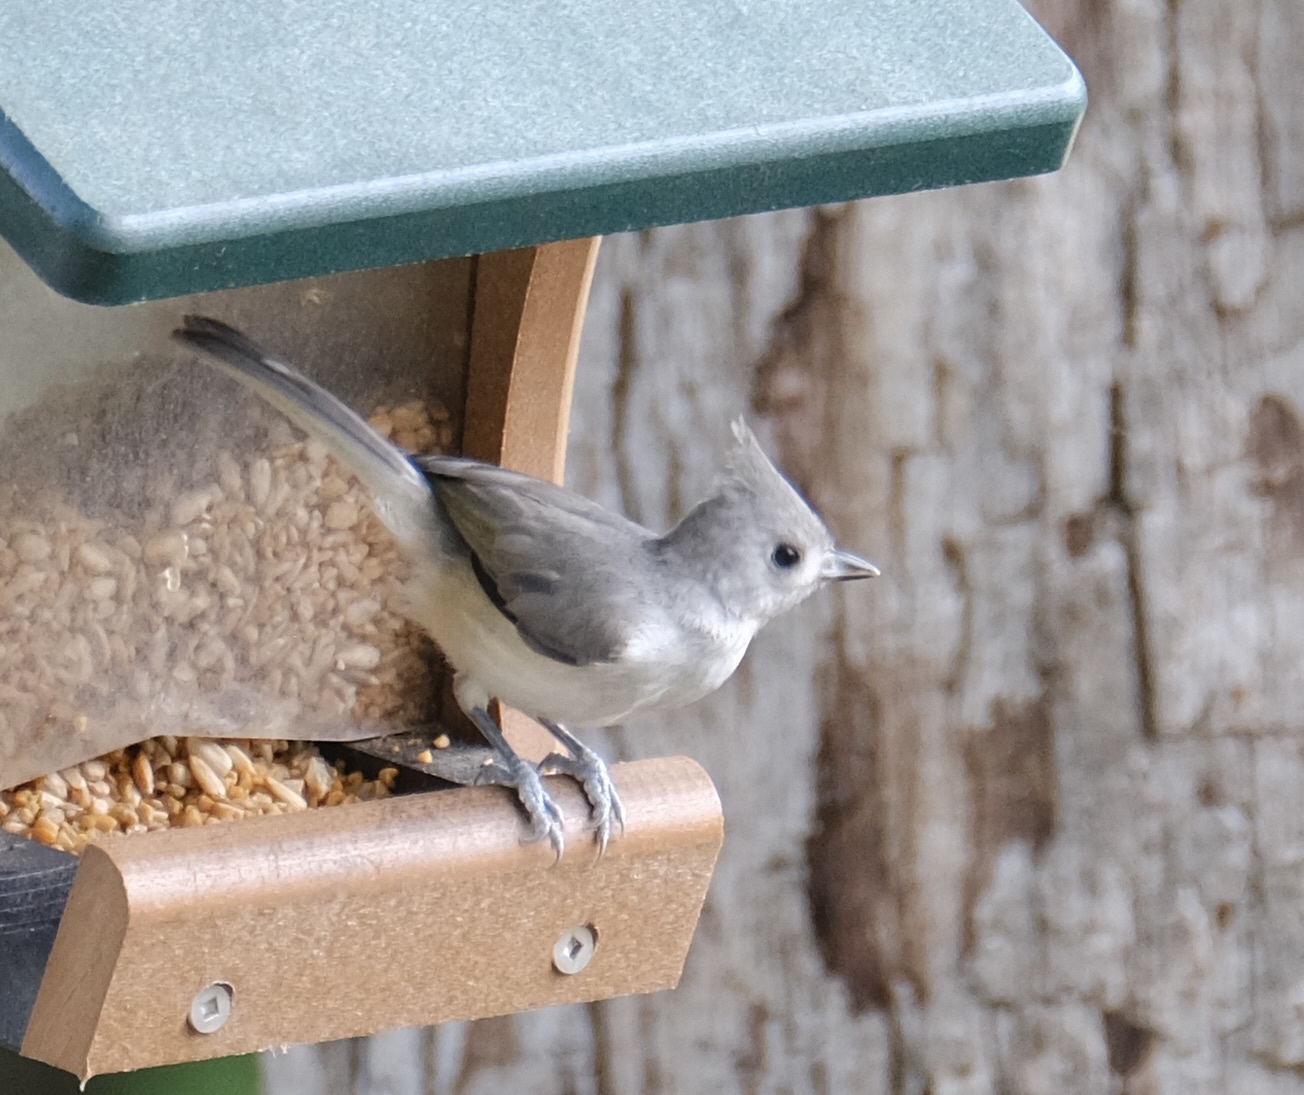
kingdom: Animalia
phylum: Chordata
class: Aves
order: Passeriformes
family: Paridae
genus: Baeolophus
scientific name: Baeolophus atricristatus
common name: Black-crested titmouse
